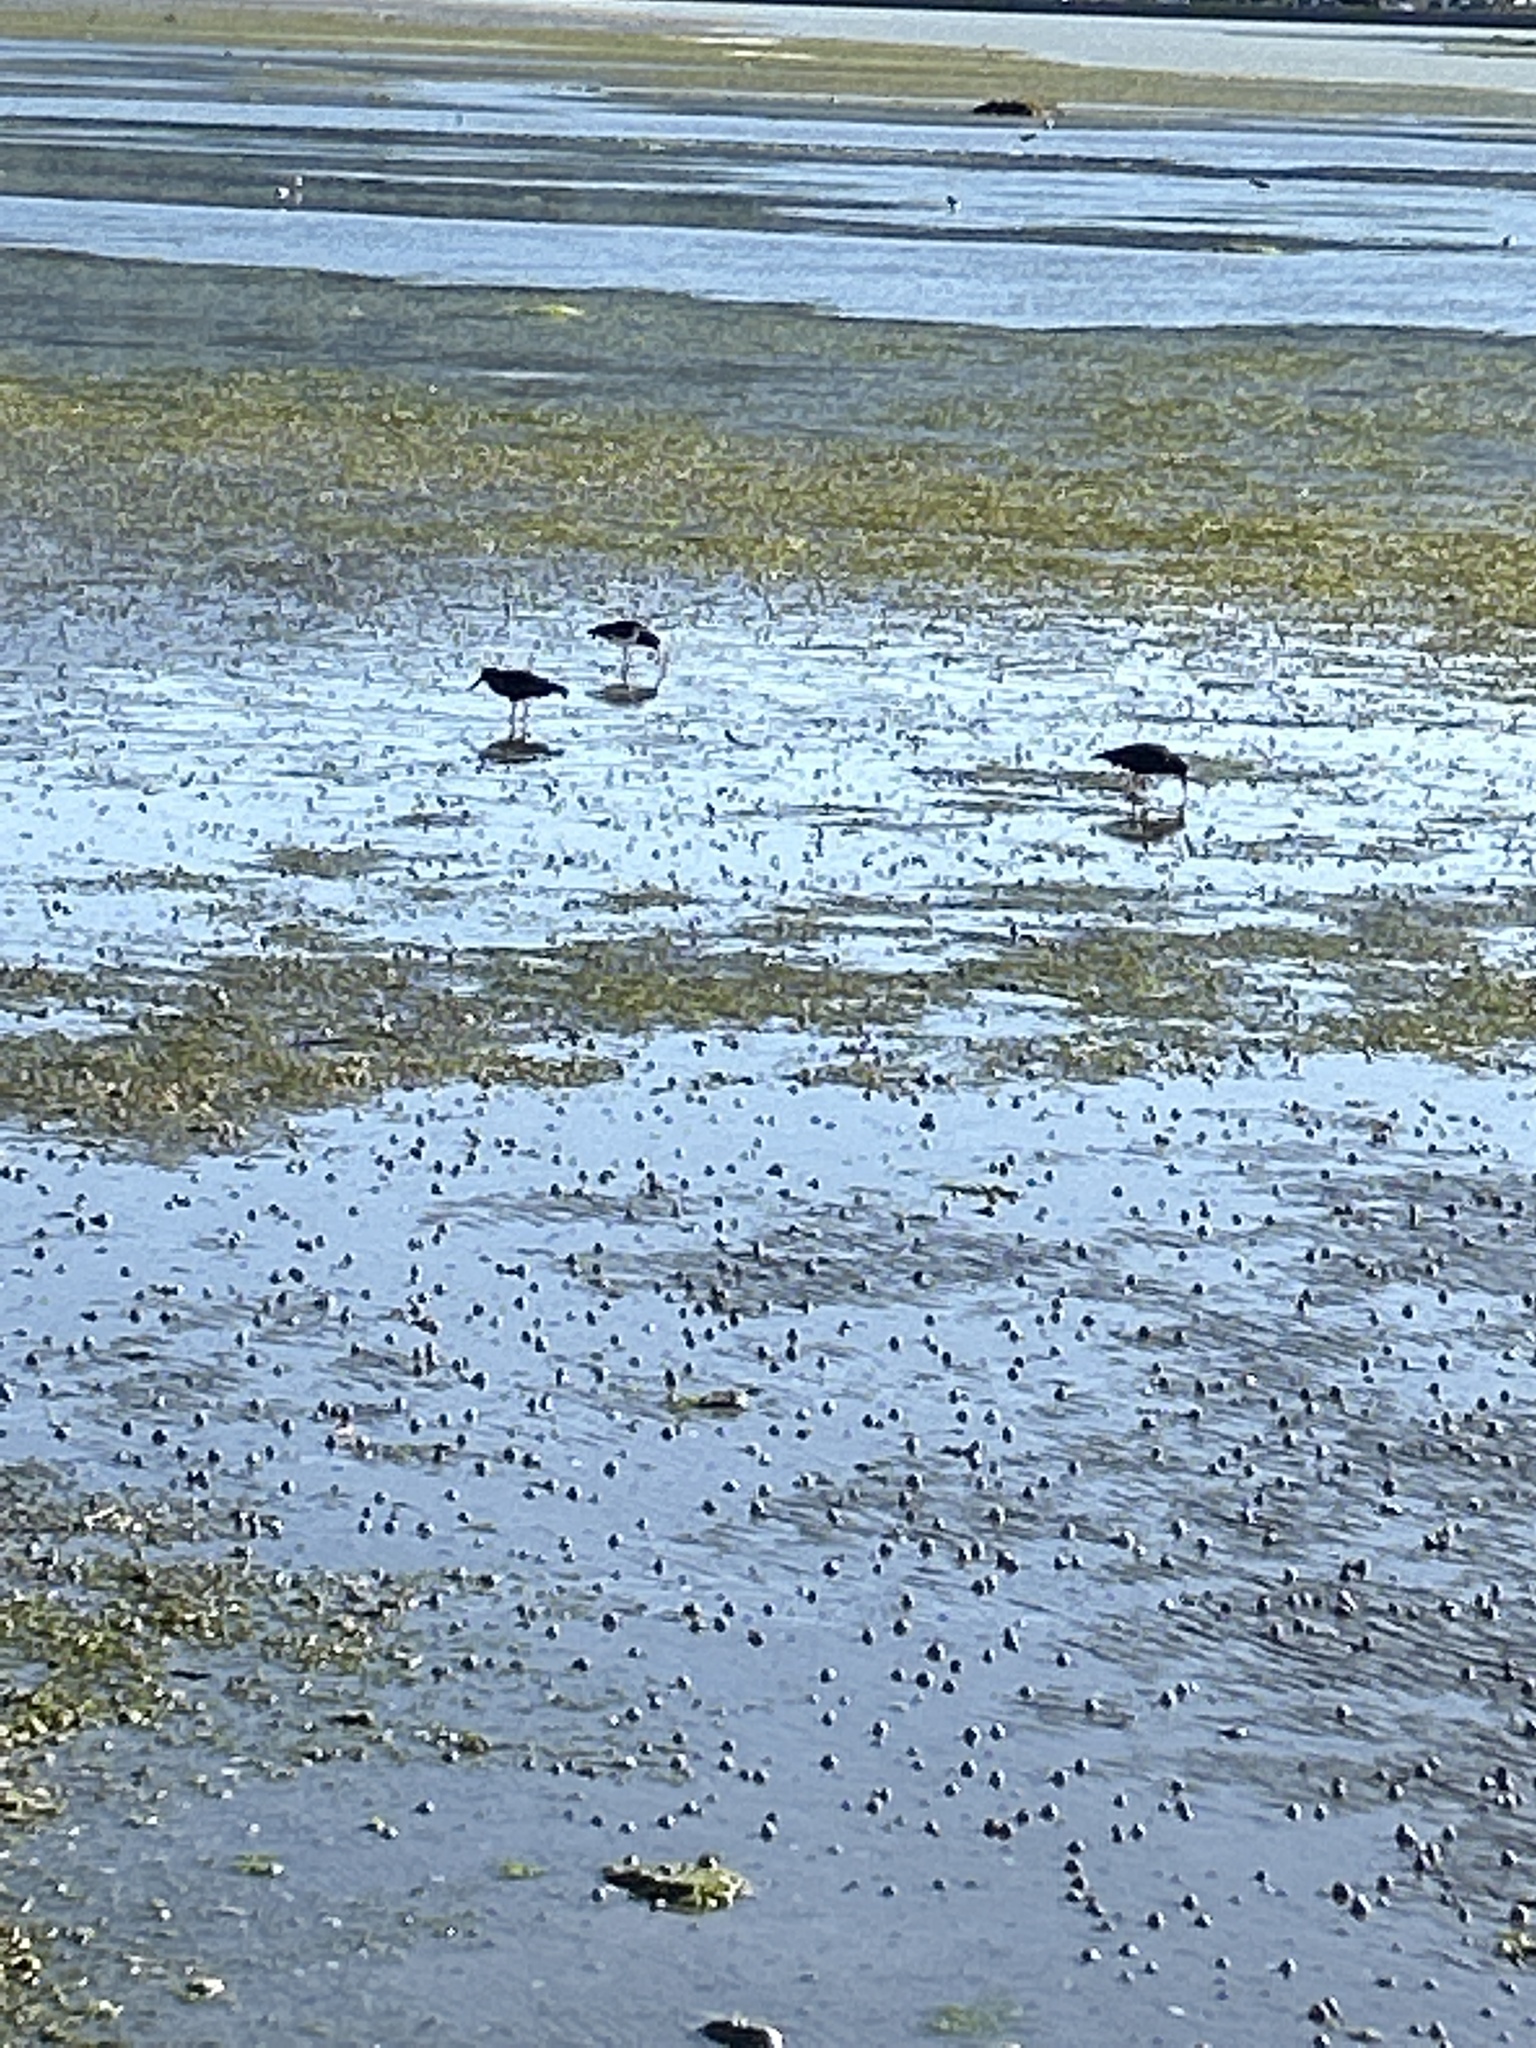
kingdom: Animalia
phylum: Chordata
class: Aves
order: Charadriiformes
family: Haematopodidae
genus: Haematopus
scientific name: Haematopus unicolor
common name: Variable oystercatcher
